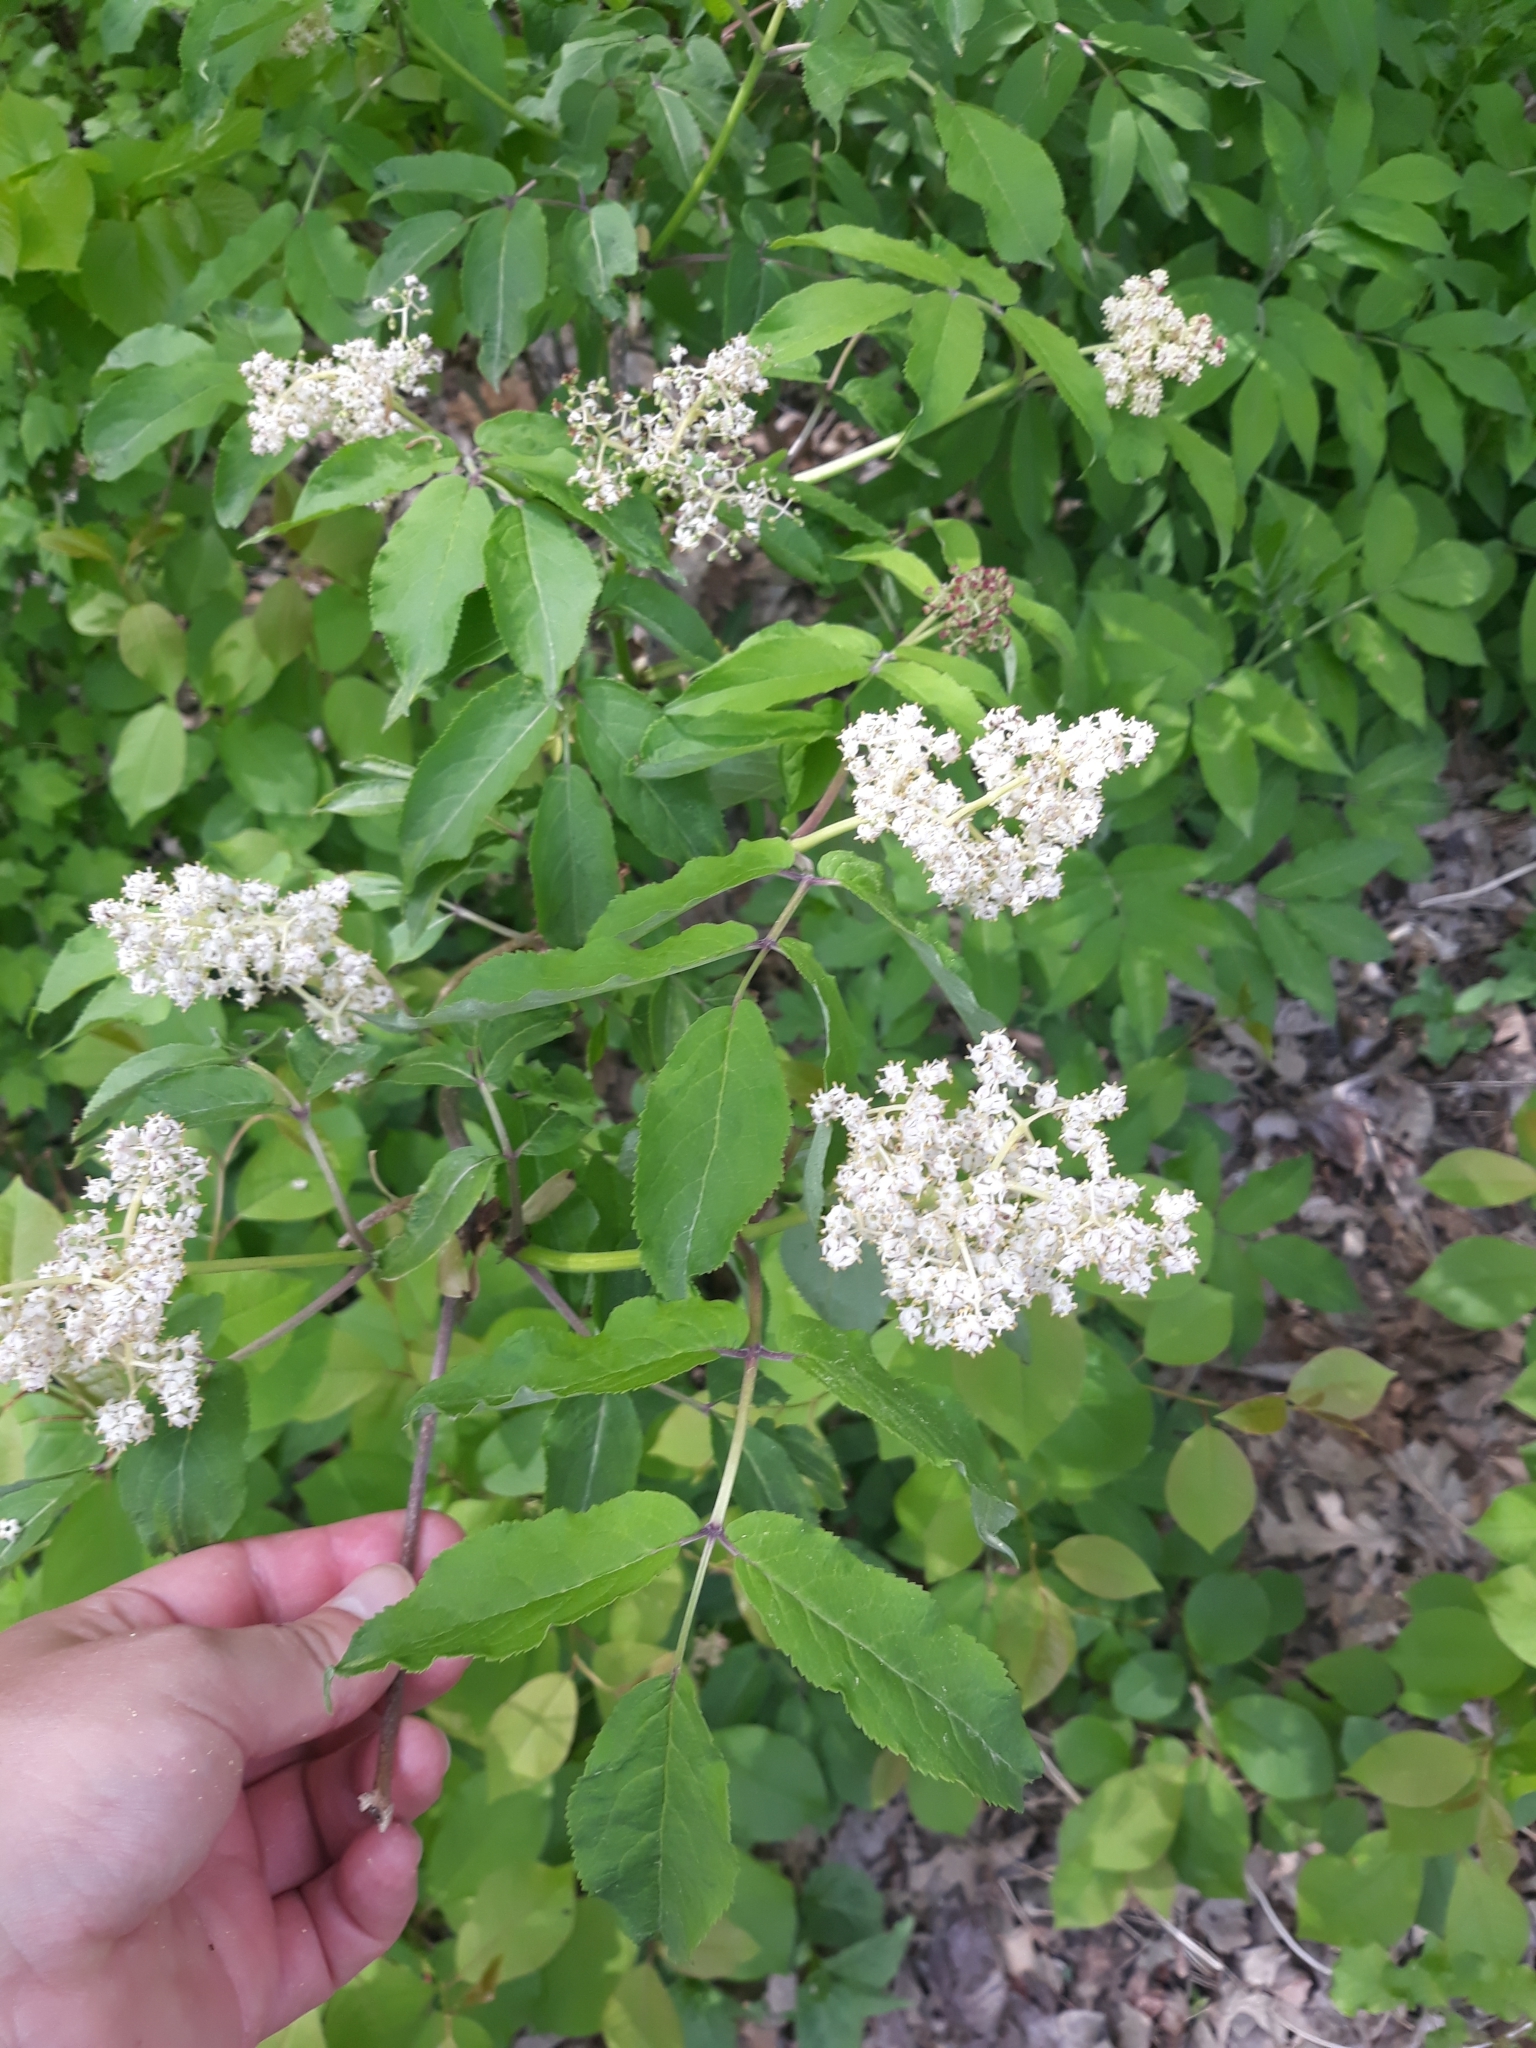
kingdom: Plantae
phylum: Tracheophyta
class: Magnoliopsida
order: Dipsacales
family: Viburnaceae
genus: Sambucus
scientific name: Sambucus racemosa
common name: Red-berried elder
